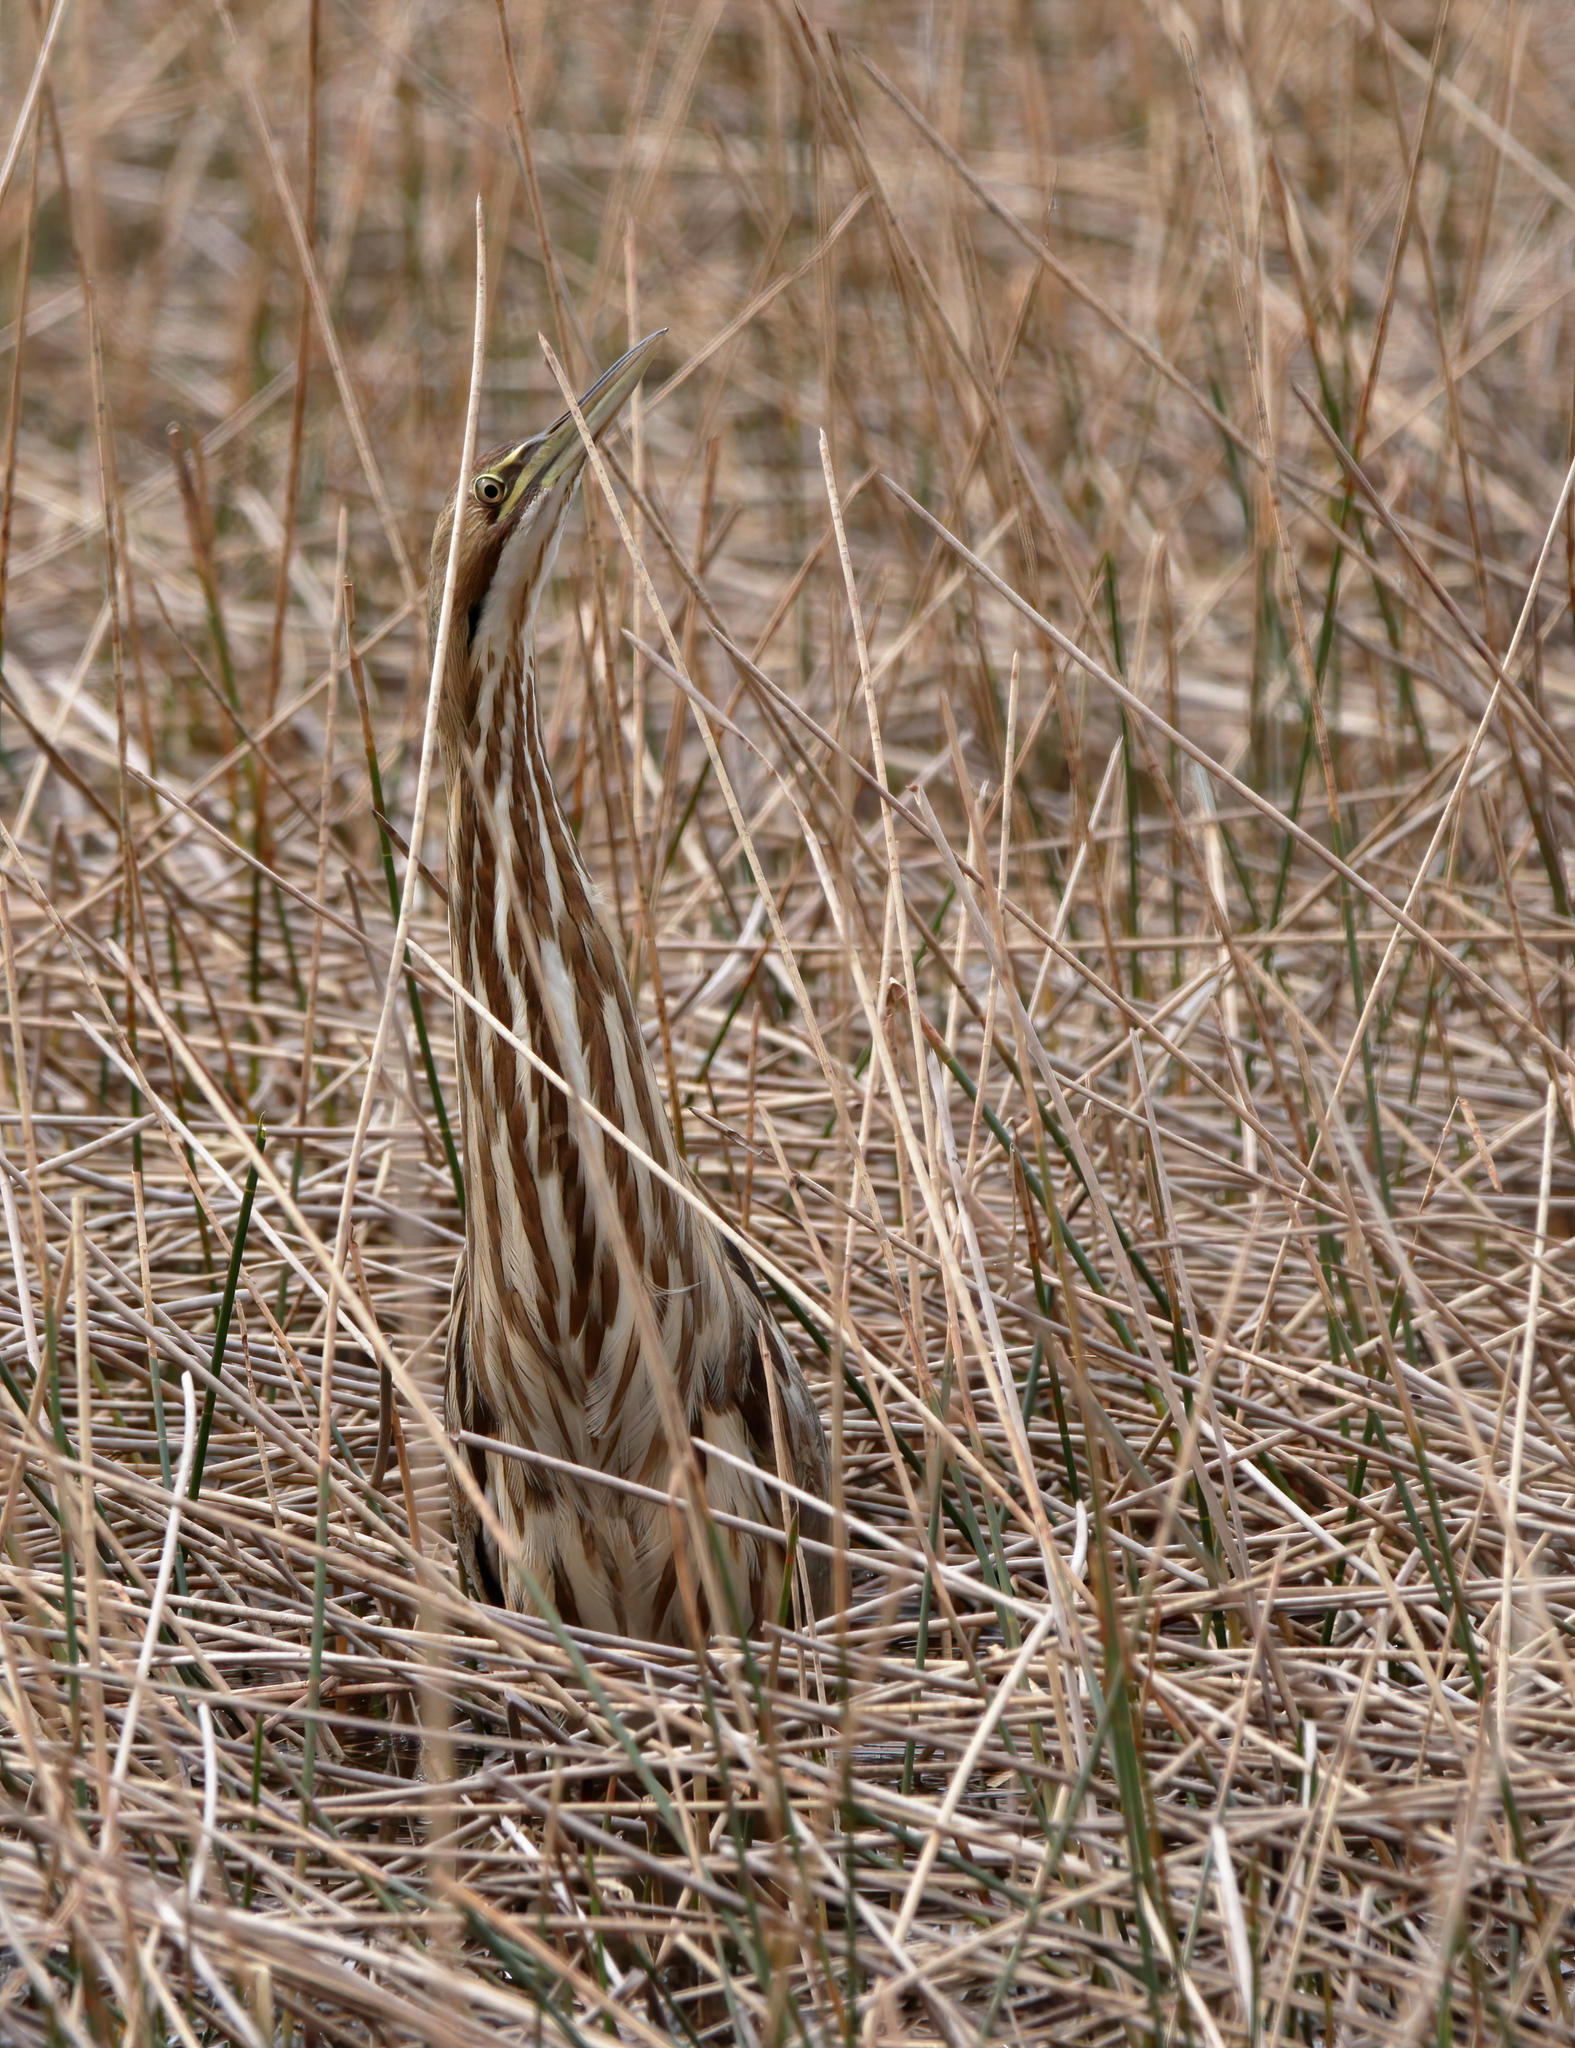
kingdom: Animalia
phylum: Chordata
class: Aves
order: Pelecaniformes
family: Ardeidae
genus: Botaurus
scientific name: Botaurus lentiginosus
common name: American bittern
